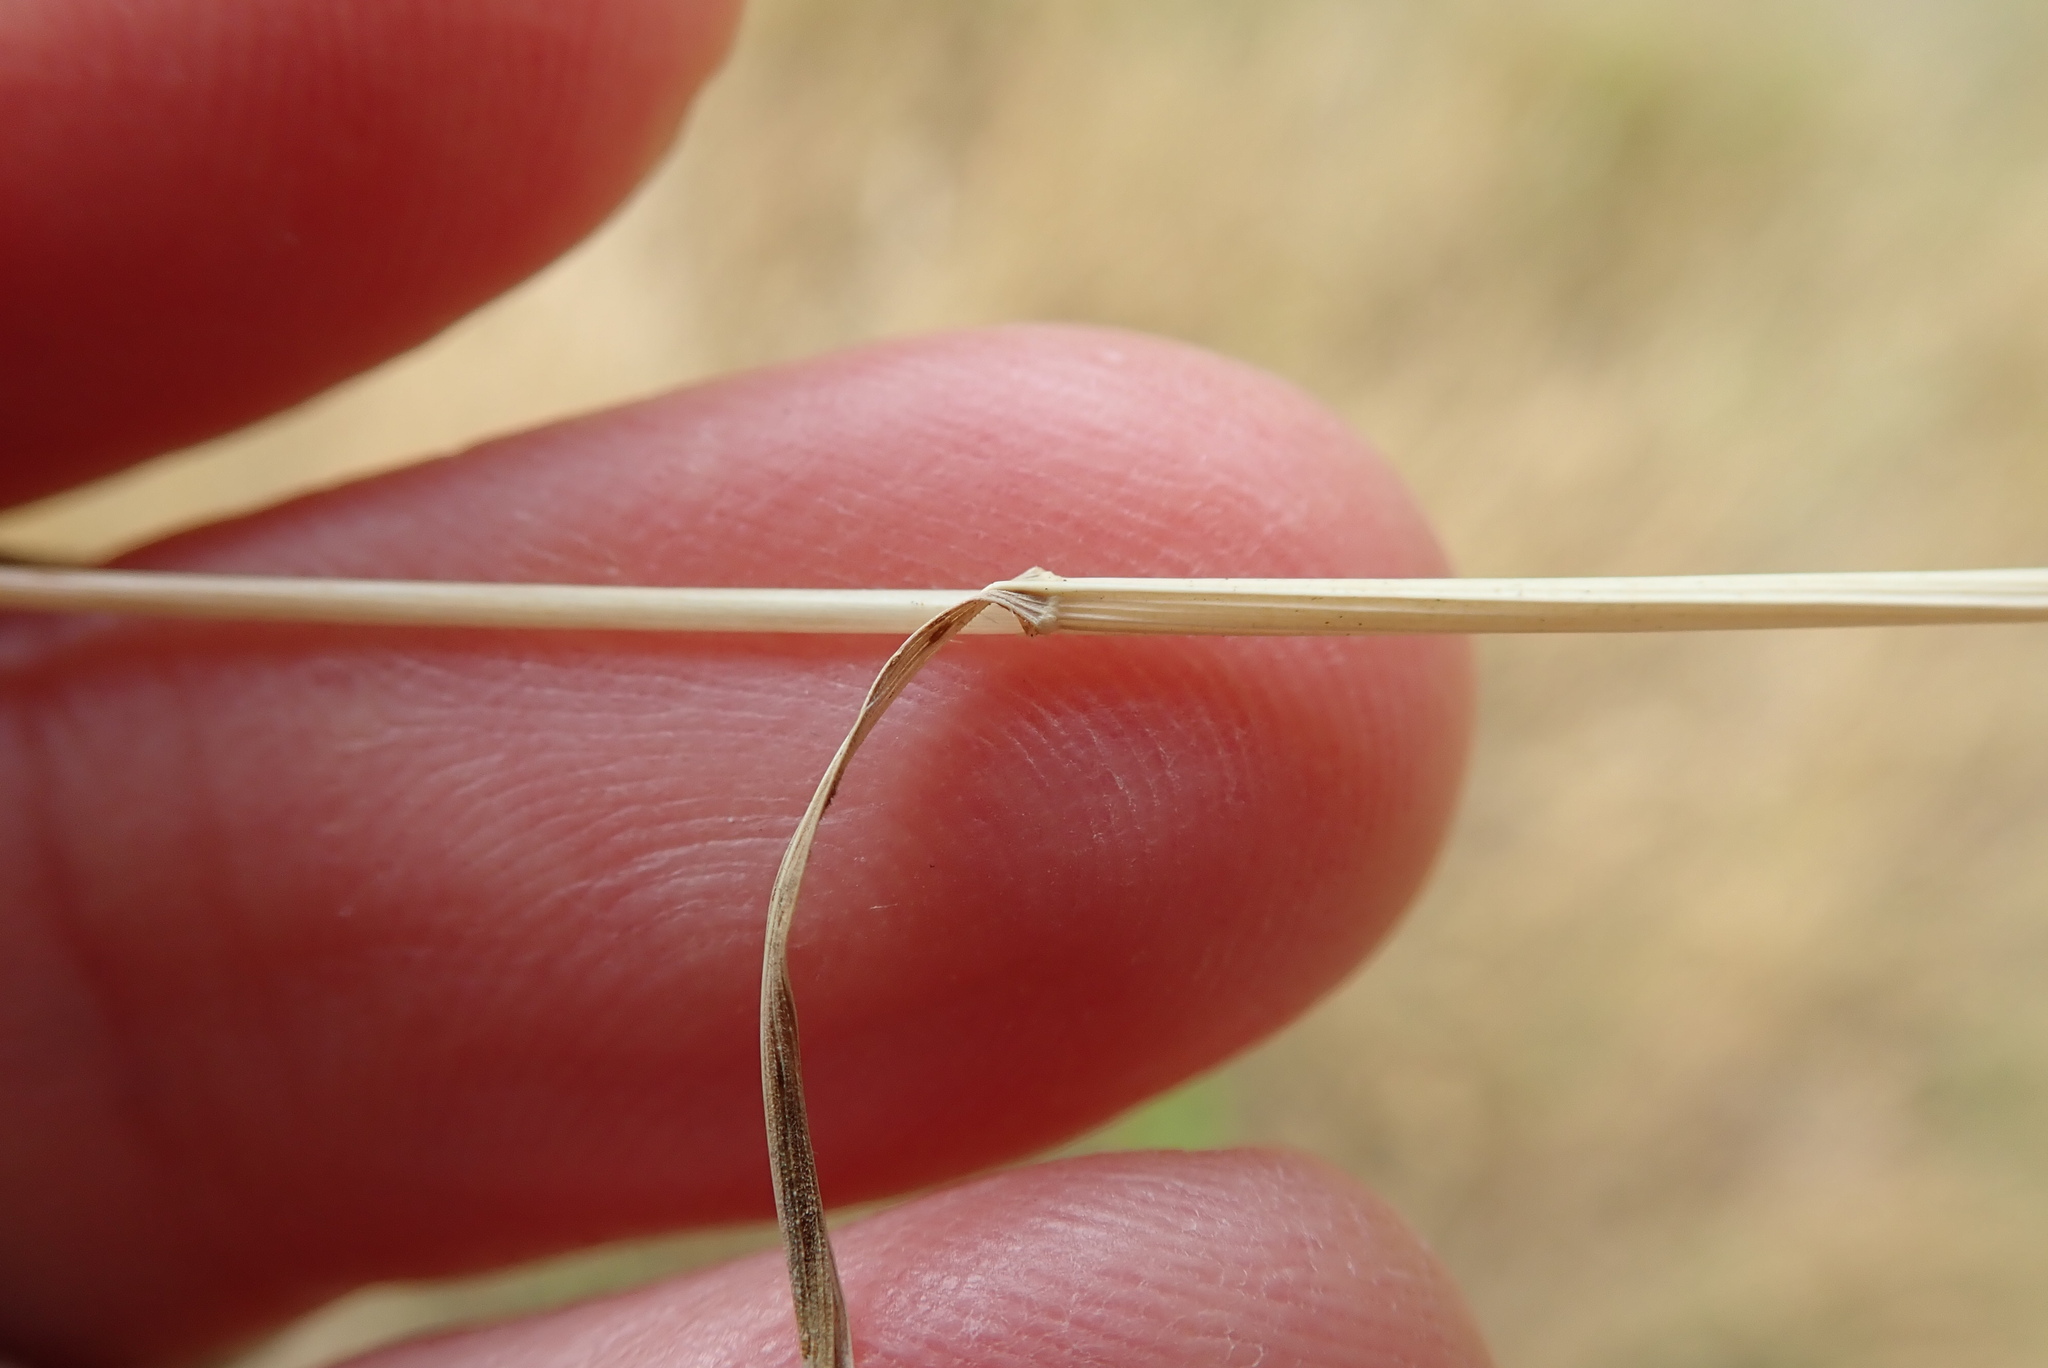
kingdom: Plantae
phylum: Tracheophyta
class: Liliopsida
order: Poales
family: Poaceae
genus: Brachypodium
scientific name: Brachypodium distachyon
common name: Stiff brome
